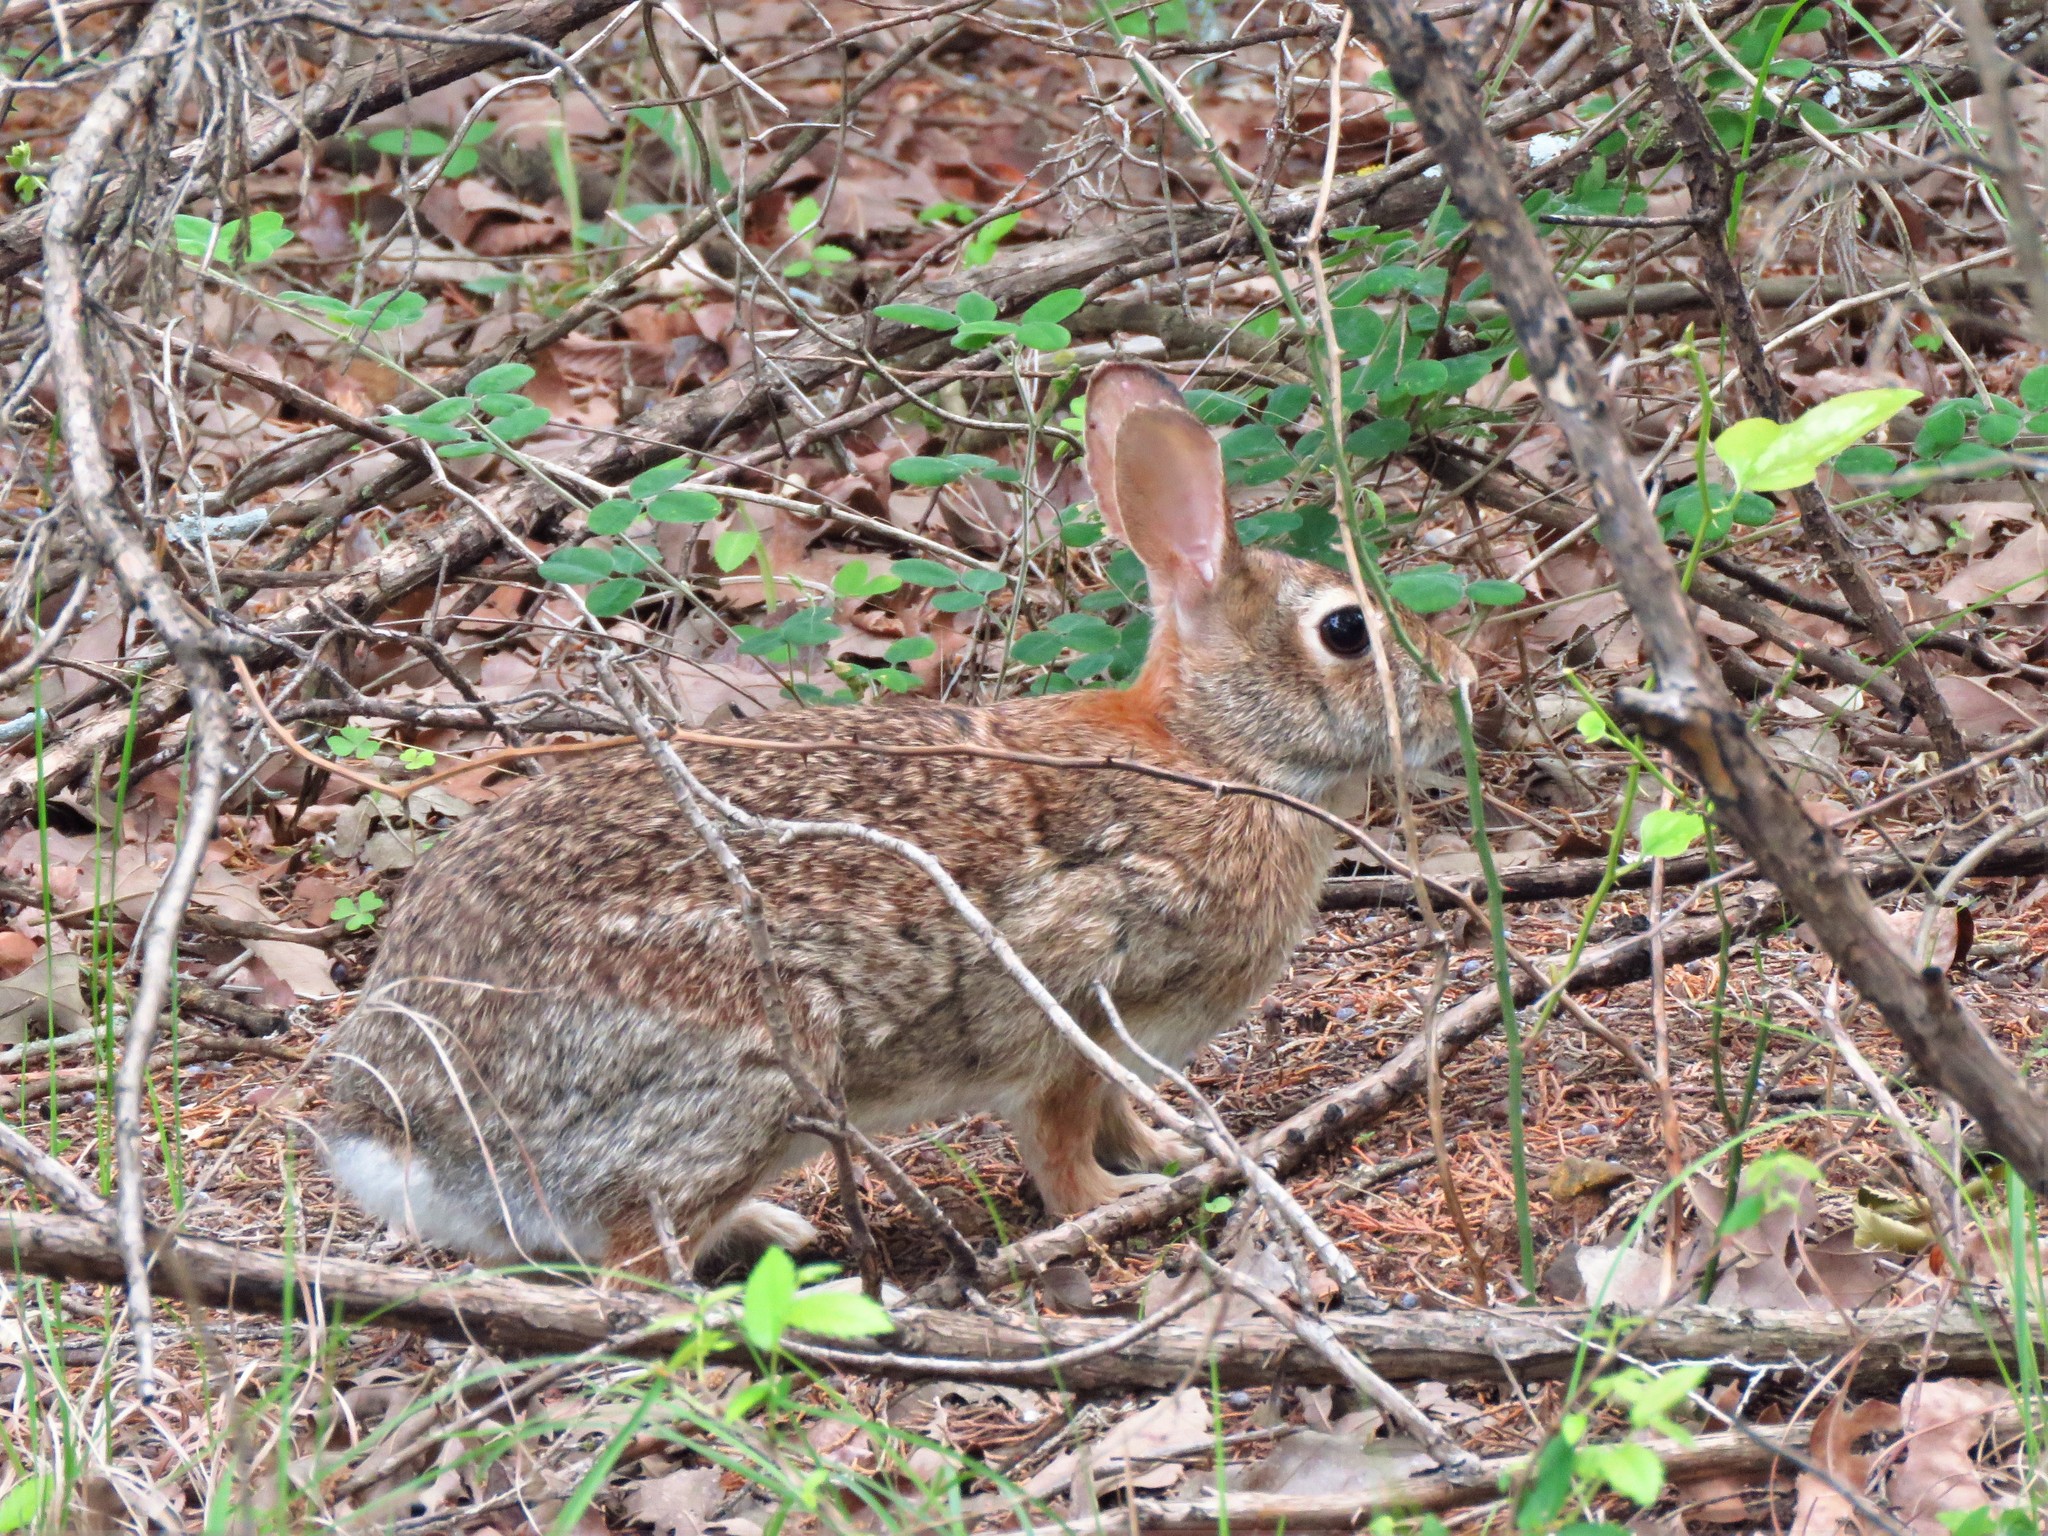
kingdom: Animalia
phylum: Chordata
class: Mammalia
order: Lagomorpha
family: Leporidae
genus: Sylvilagus
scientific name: Sylvilagus floridanus
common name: Eastern cottontail
